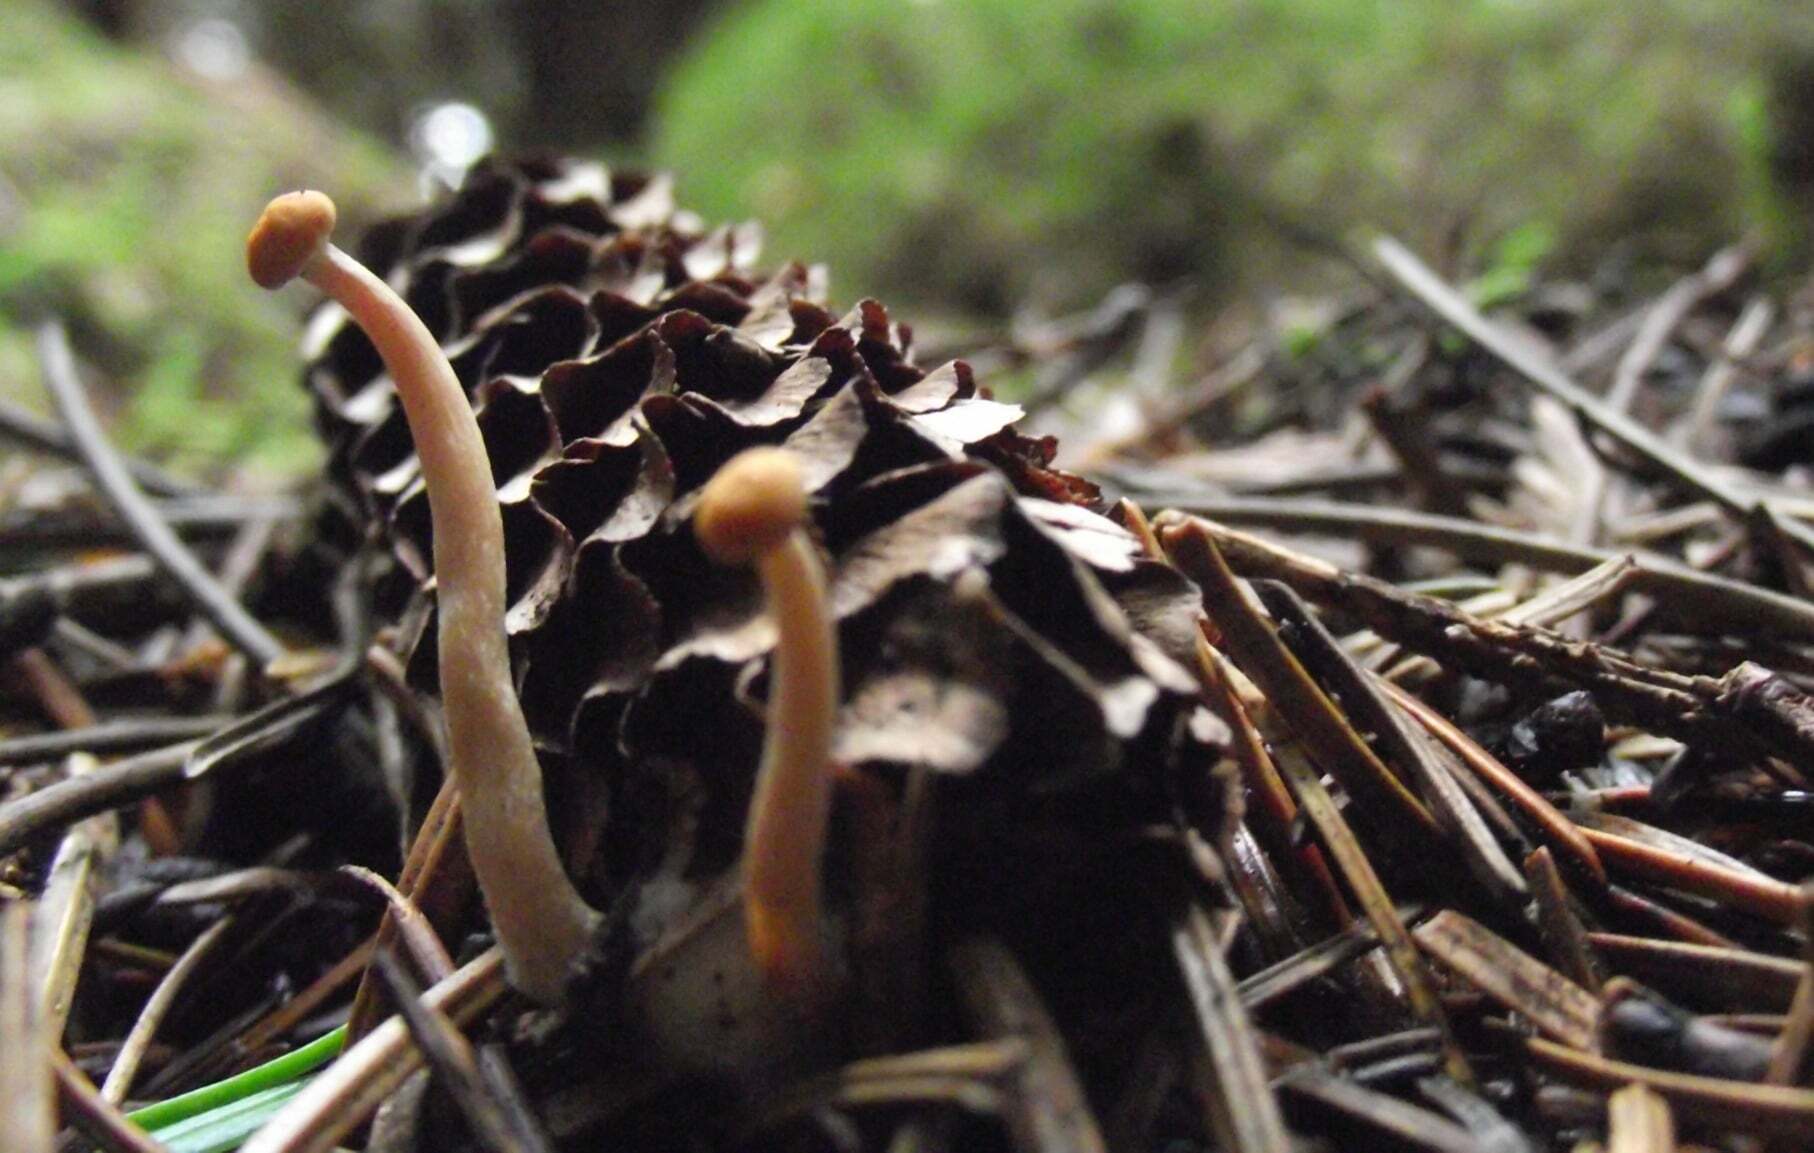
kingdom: Fungi
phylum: Basidiomycota
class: Agaricomycetes
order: Russulales
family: Auriscalpiaceae
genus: Auriscalpium
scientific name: Auriscalpium vulgare
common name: Earpick fungus
